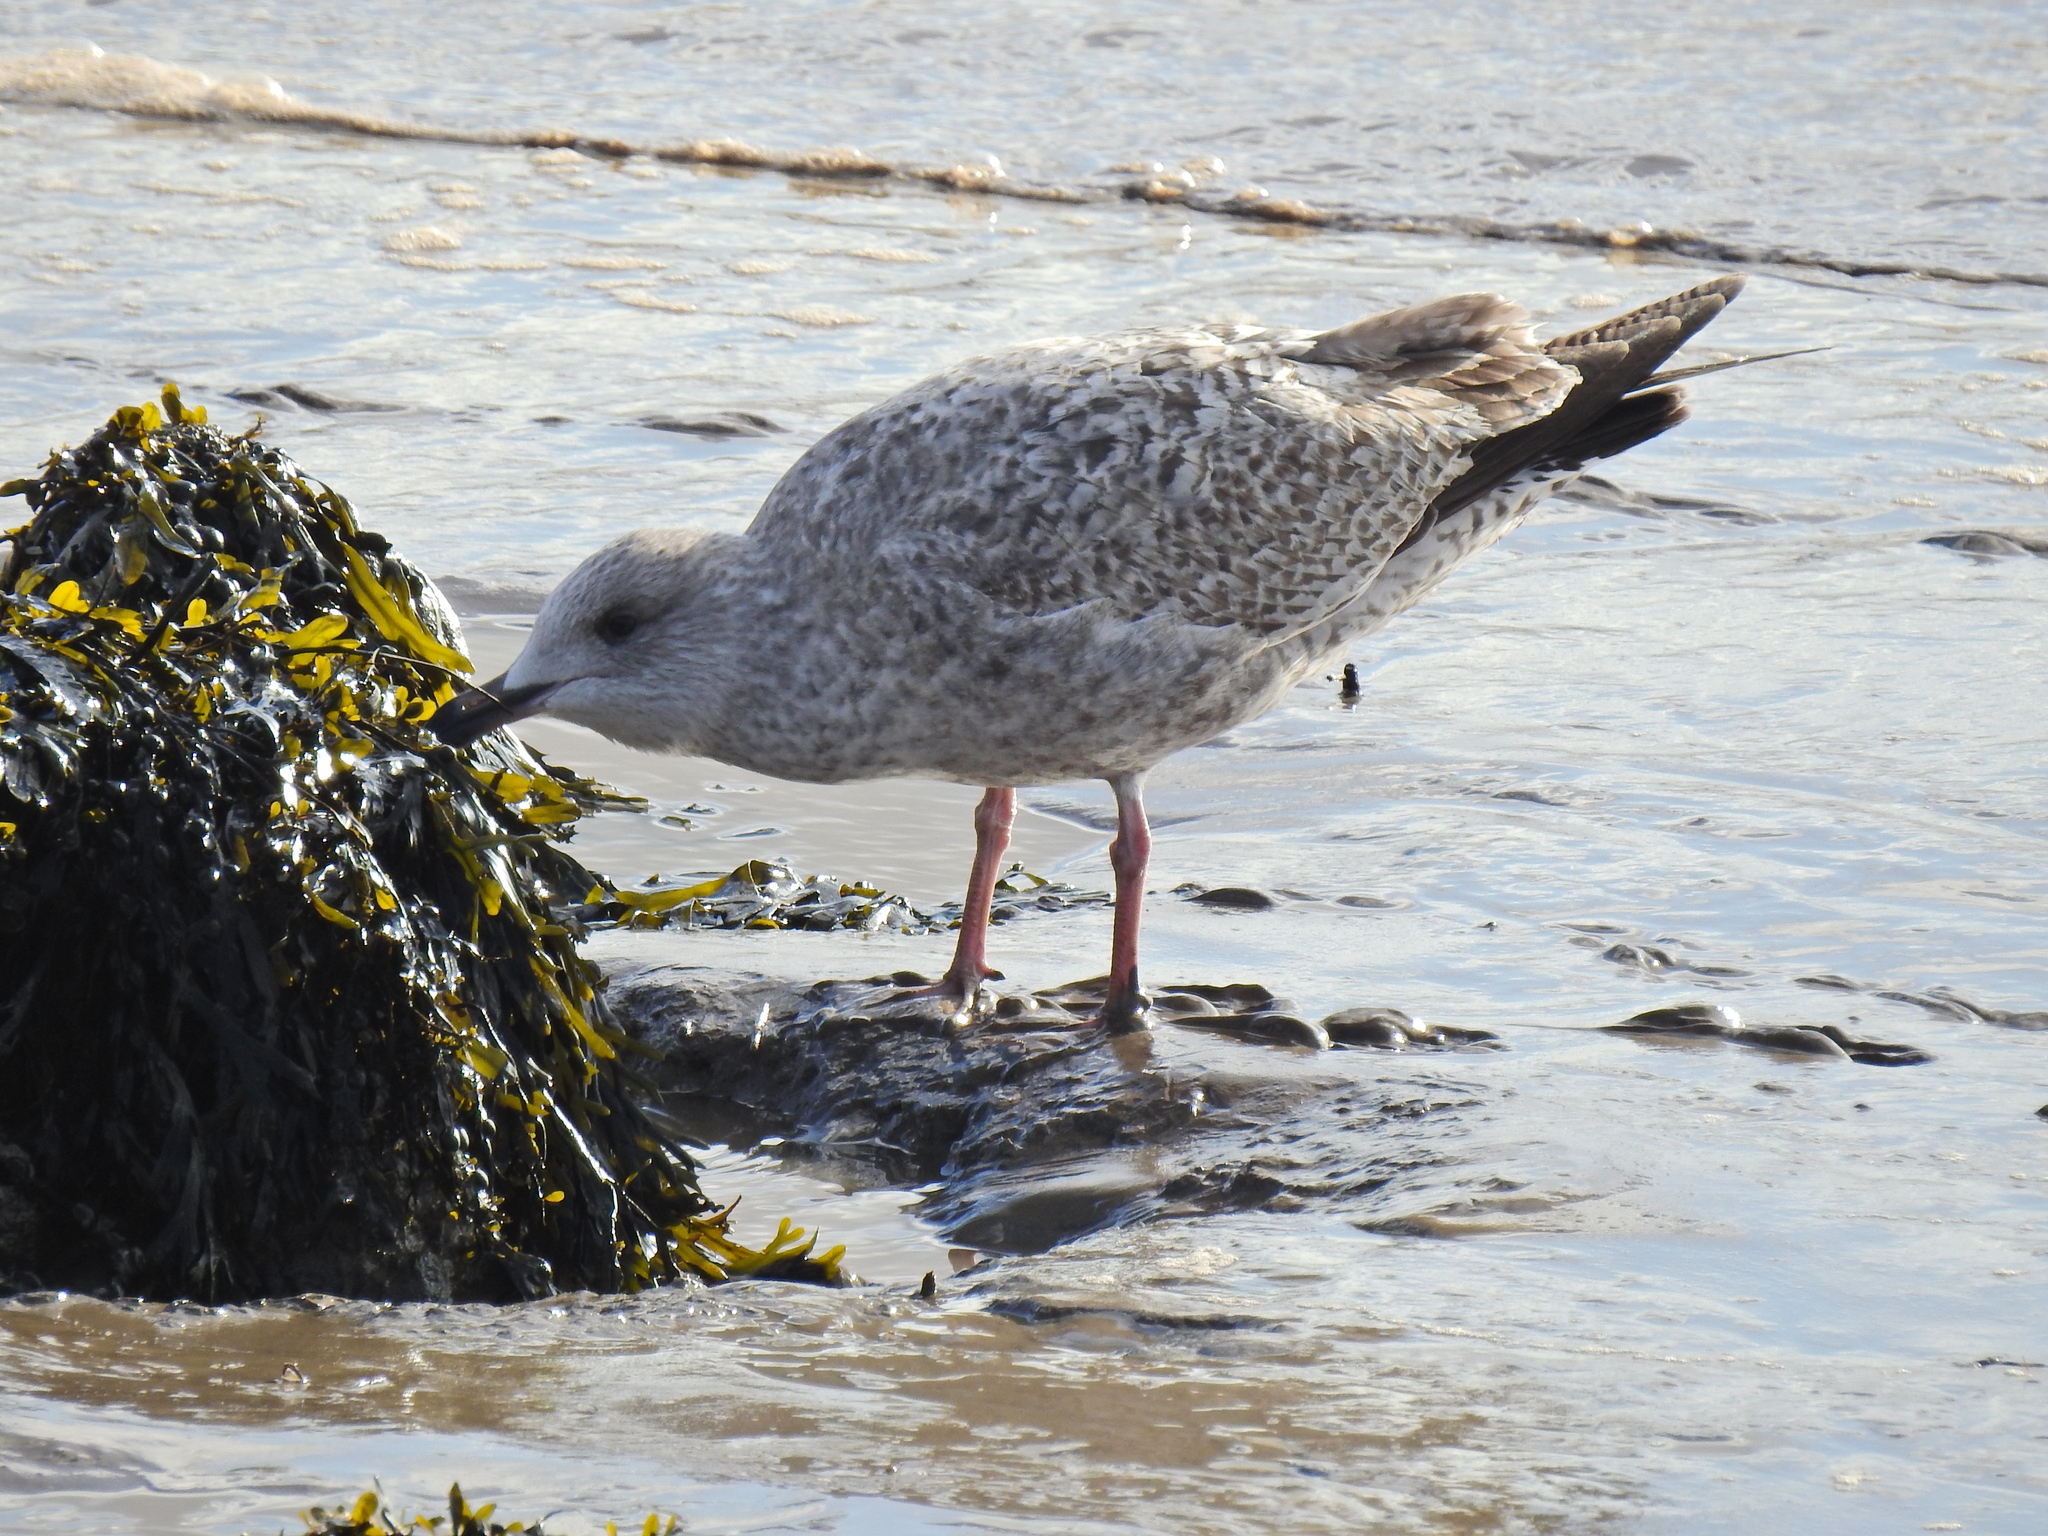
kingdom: Animalia
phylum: Chordata
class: Aves
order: Charadriiformes
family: Laridae
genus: Larus
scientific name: Larus argentatus
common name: Herring gull
